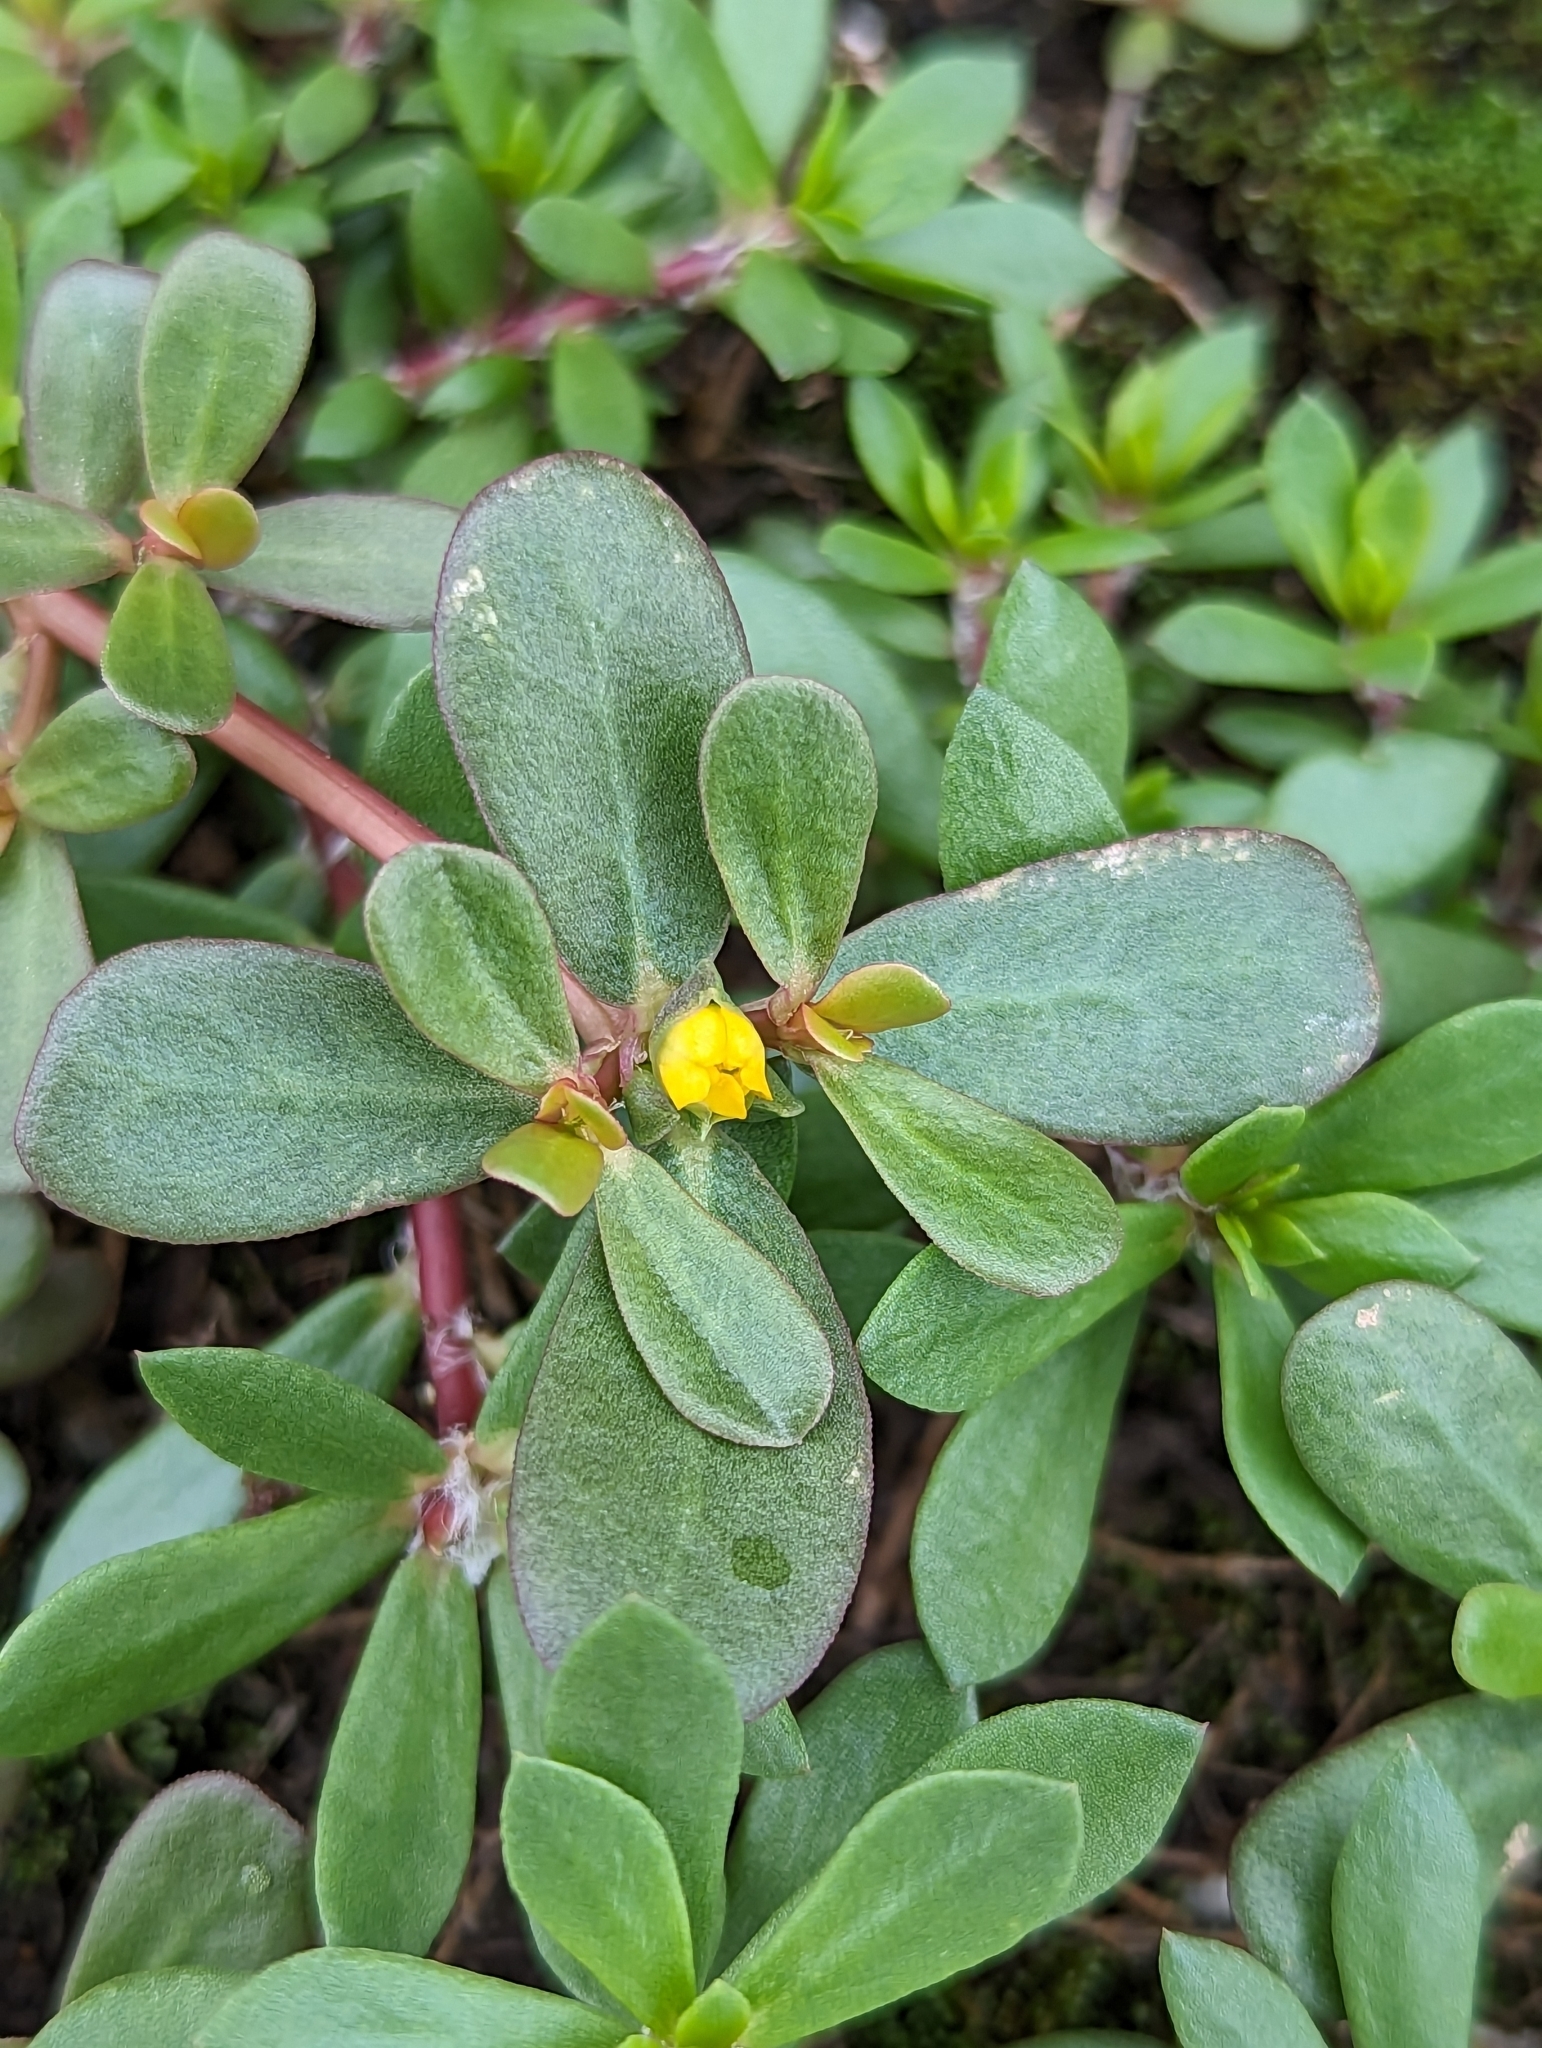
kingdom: Plantae
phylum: Tracheophyta
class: Magnoliopsida
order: Caryophyllales
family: Portulacaceae
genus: Portulaca
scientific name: Portulaca oleracea
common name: Common purslane
